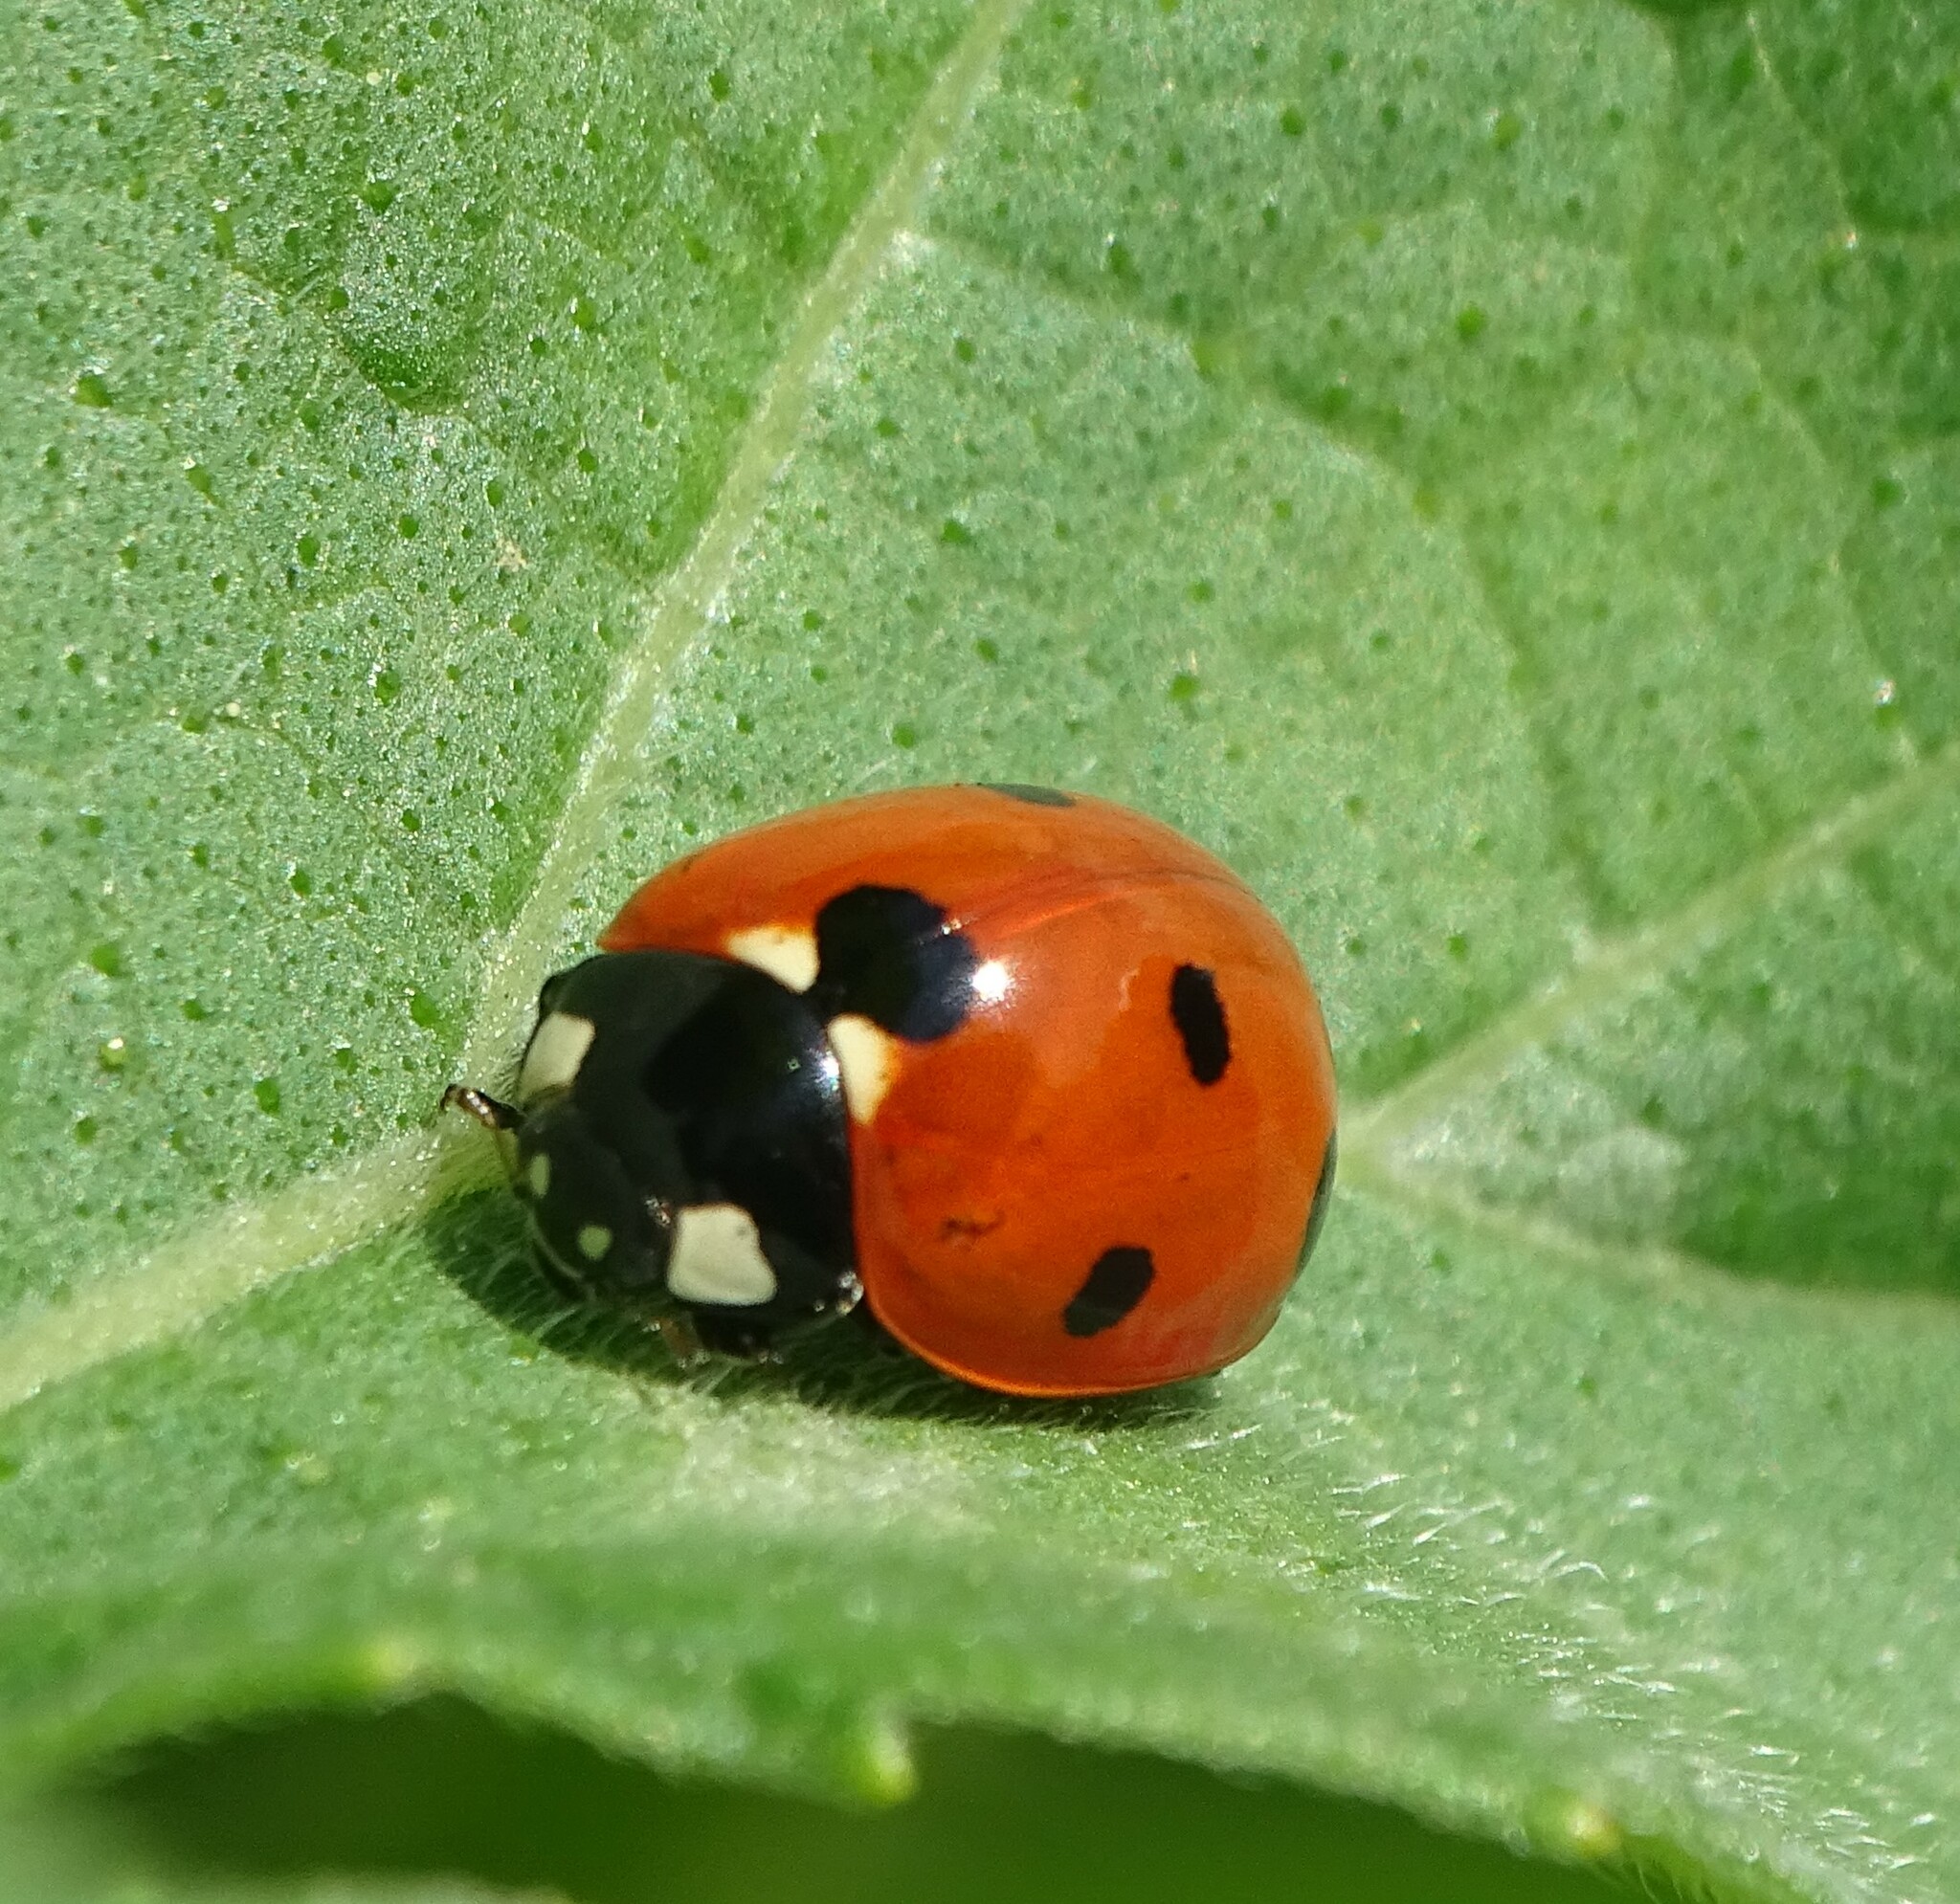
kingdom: Animalia
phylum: Arthropoda
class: Insecta
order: Coleoptera
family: Coccinellidae
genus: Coccinella
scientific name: Coccinella septempunctata
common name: Sevenspotted lady beetle
